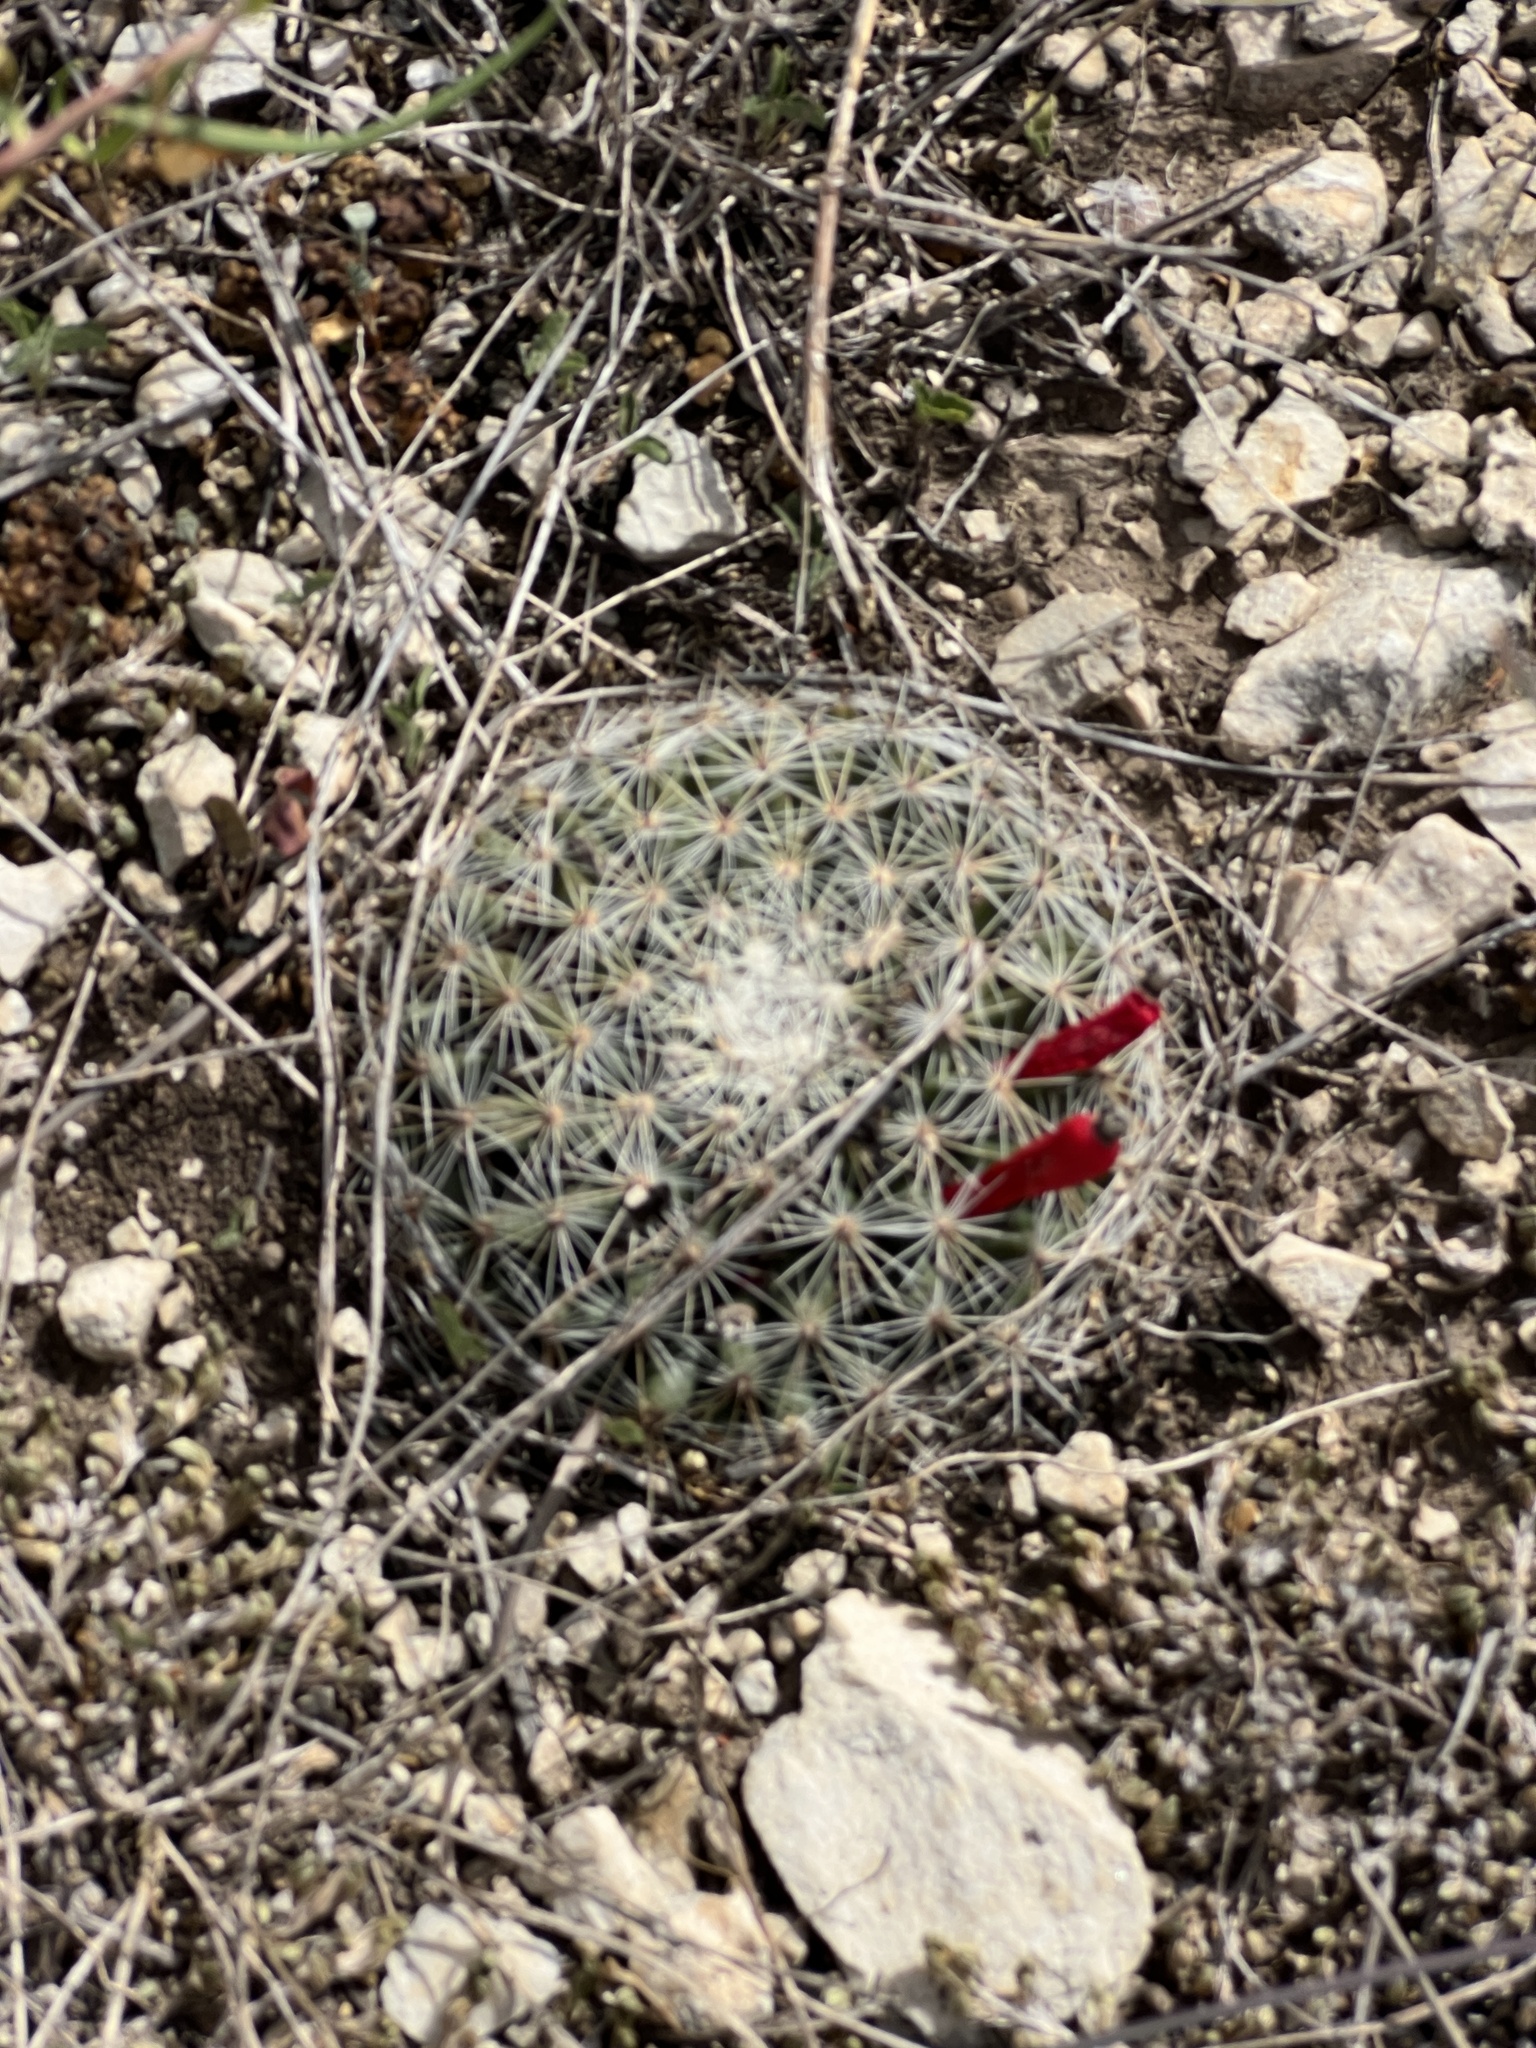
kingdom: Plantae
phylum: Tracheophyta
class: Magnoliopsida
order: Caryophyllales
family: Cactaceae
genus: Mammillaria
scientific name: Mammillaria heyderi
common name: Little nipple cactus
